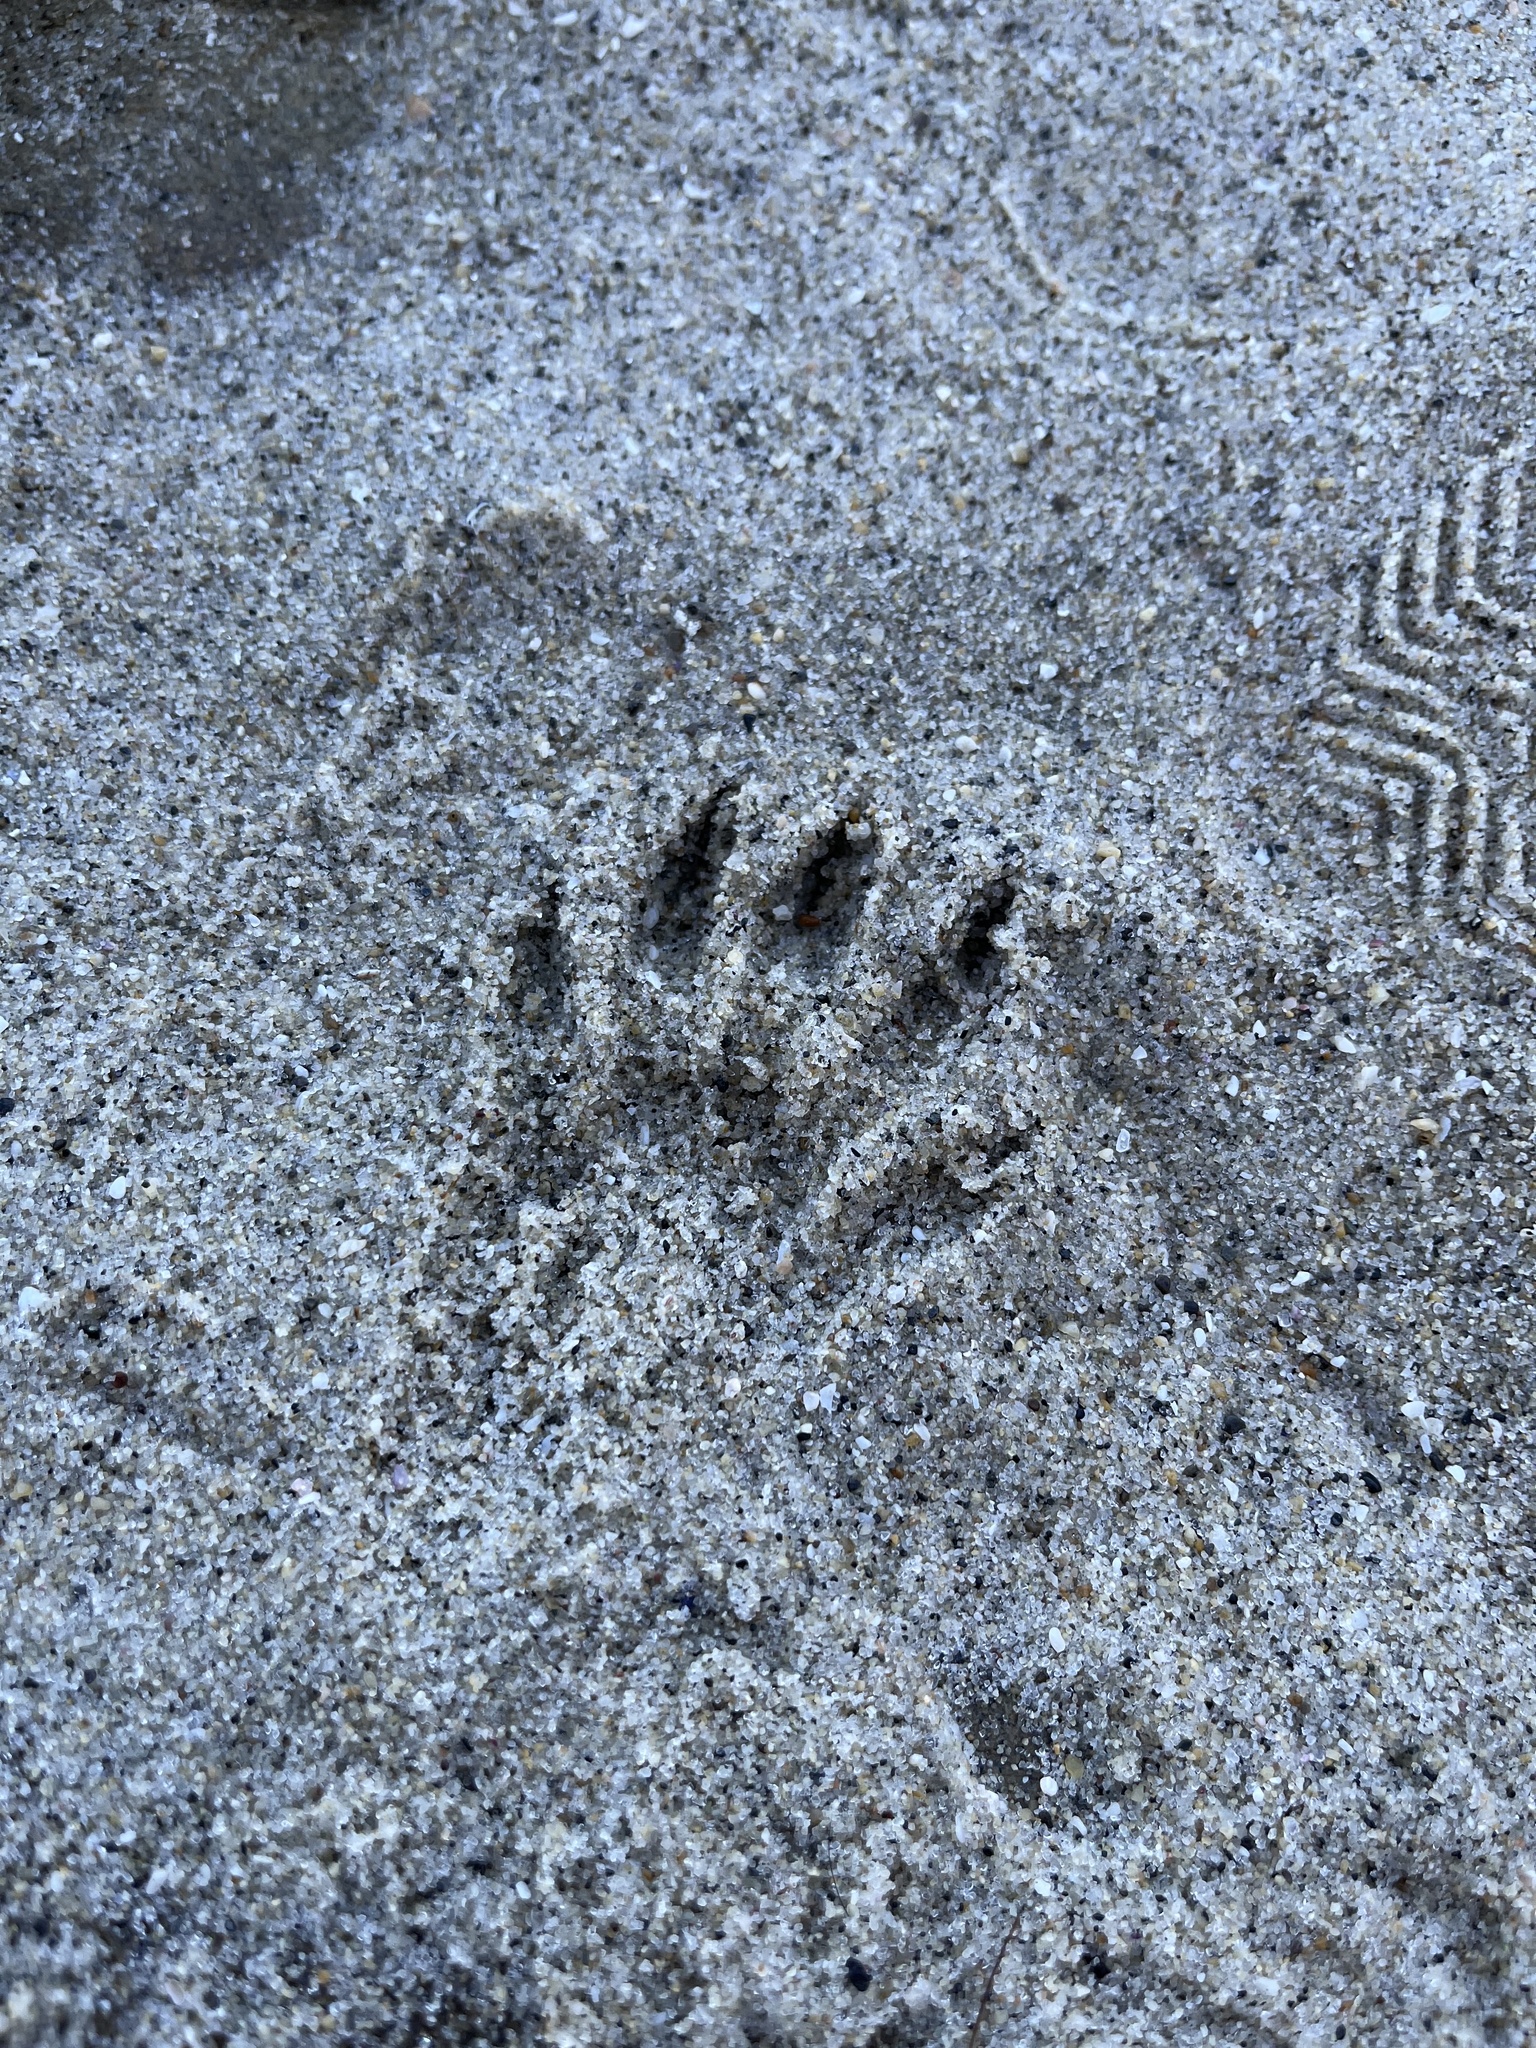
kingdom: Animalia
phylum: Chordata
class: Mammalia
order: Carnivora
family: Procyonidae
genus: Procyon
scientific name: Procyon lotor
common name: Raccoon
